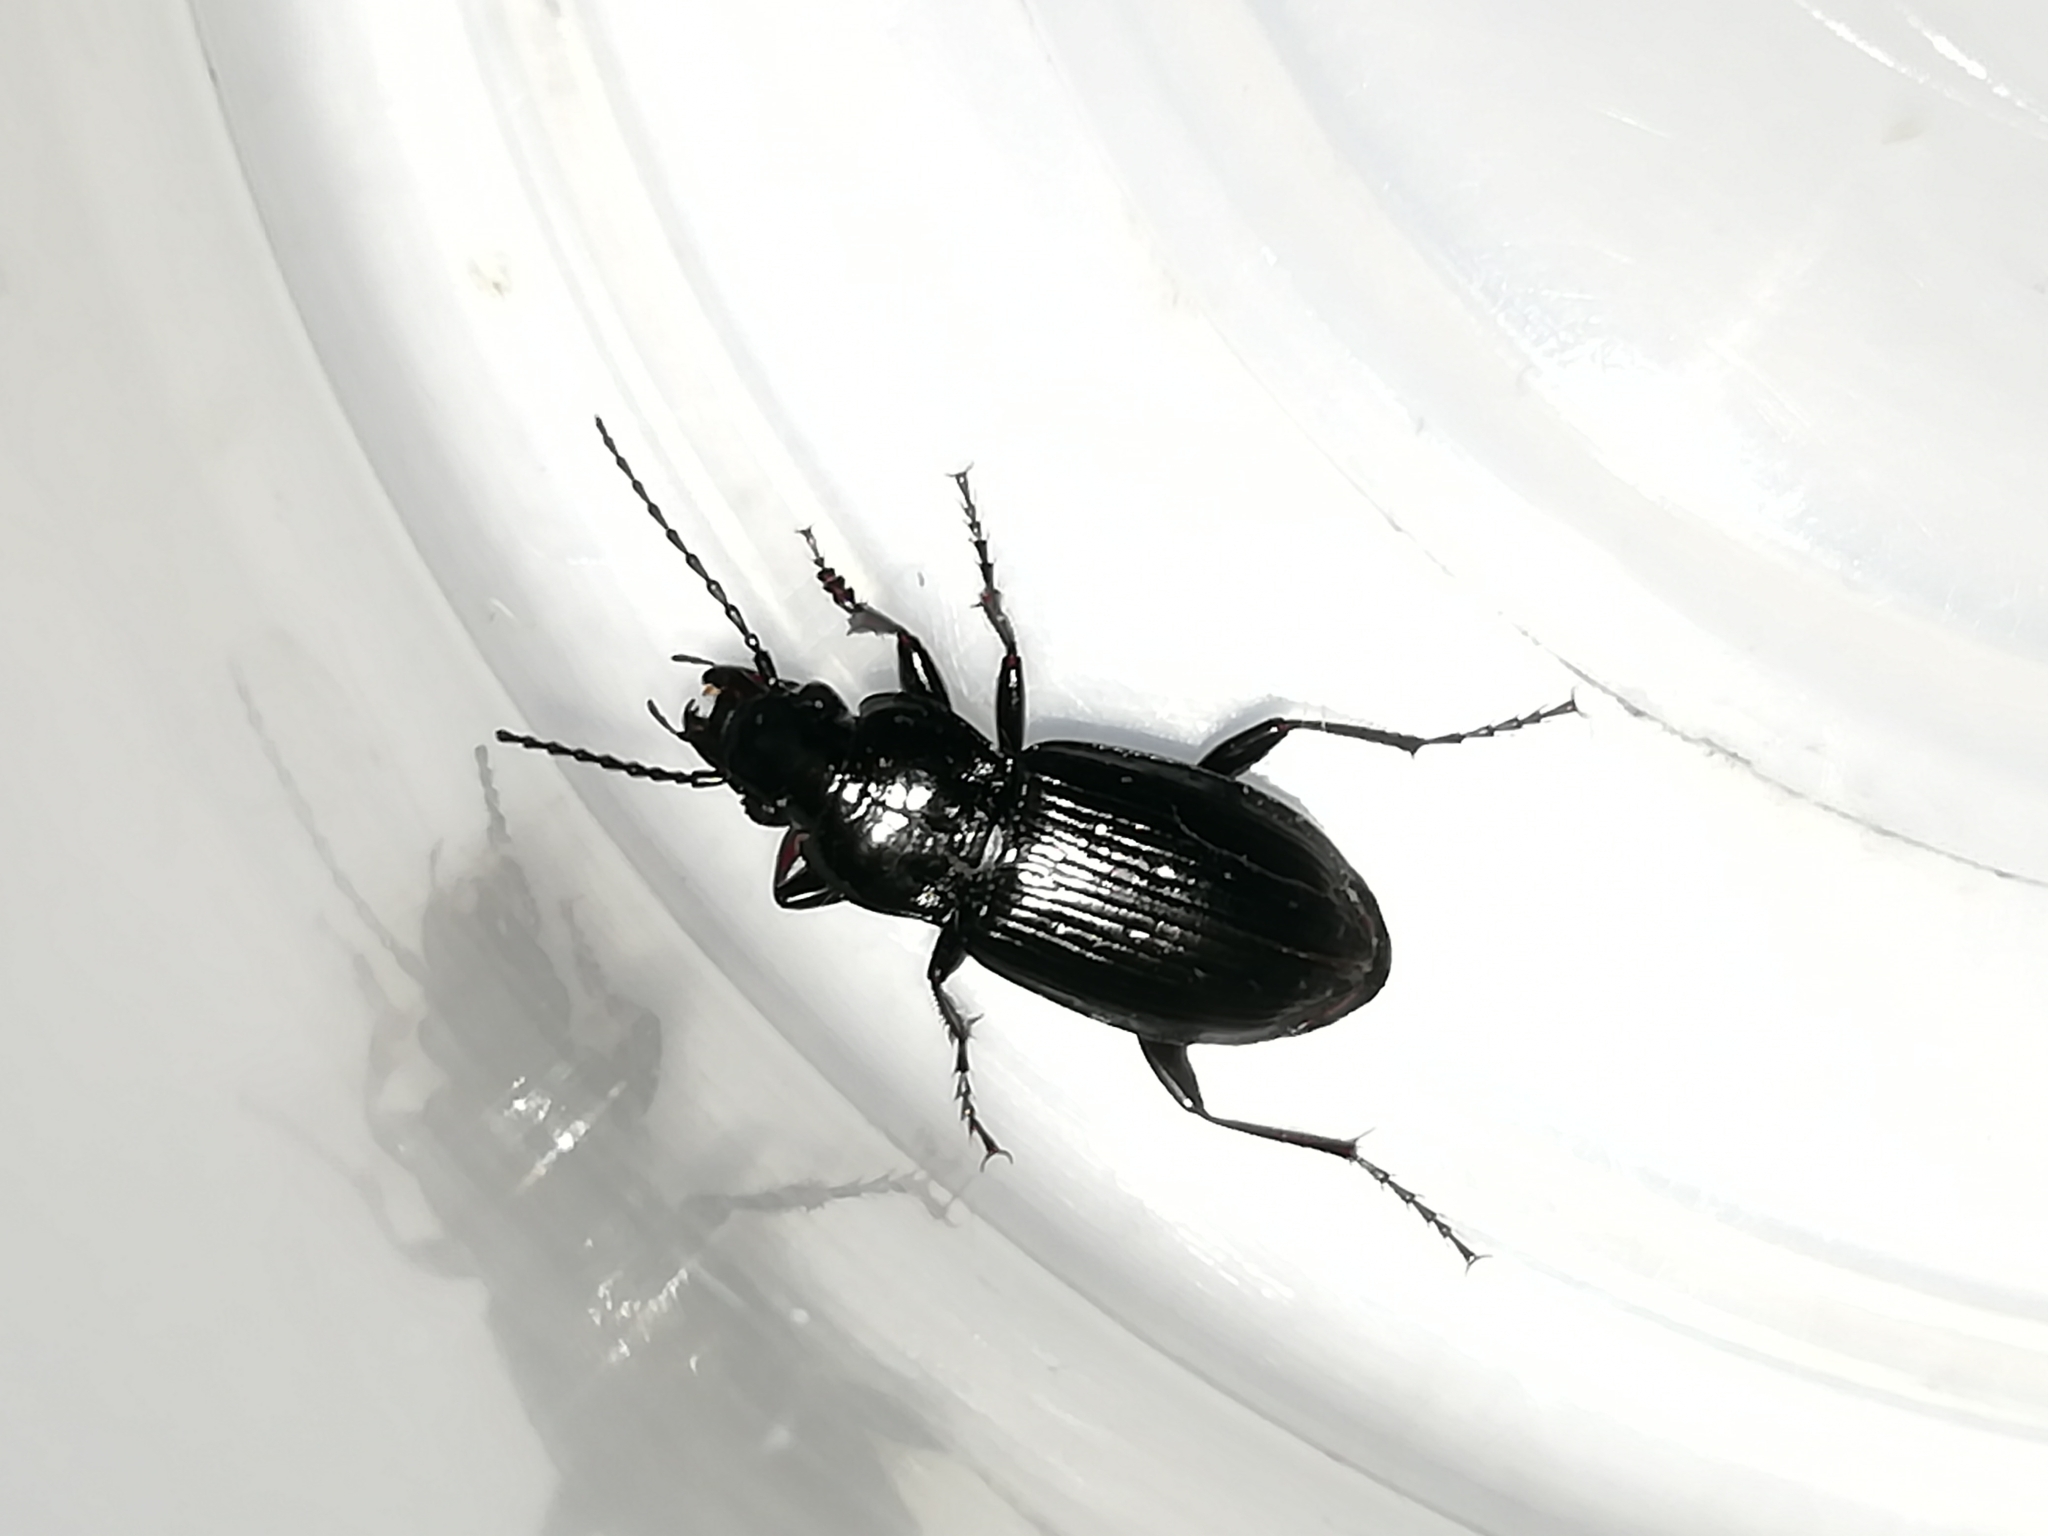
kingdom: Animalia
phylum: Arthropoda
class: Insecta
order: Coleoptera
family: Carabidae
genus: Pterostichus
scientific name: Pterostichus oblongopunctatus
